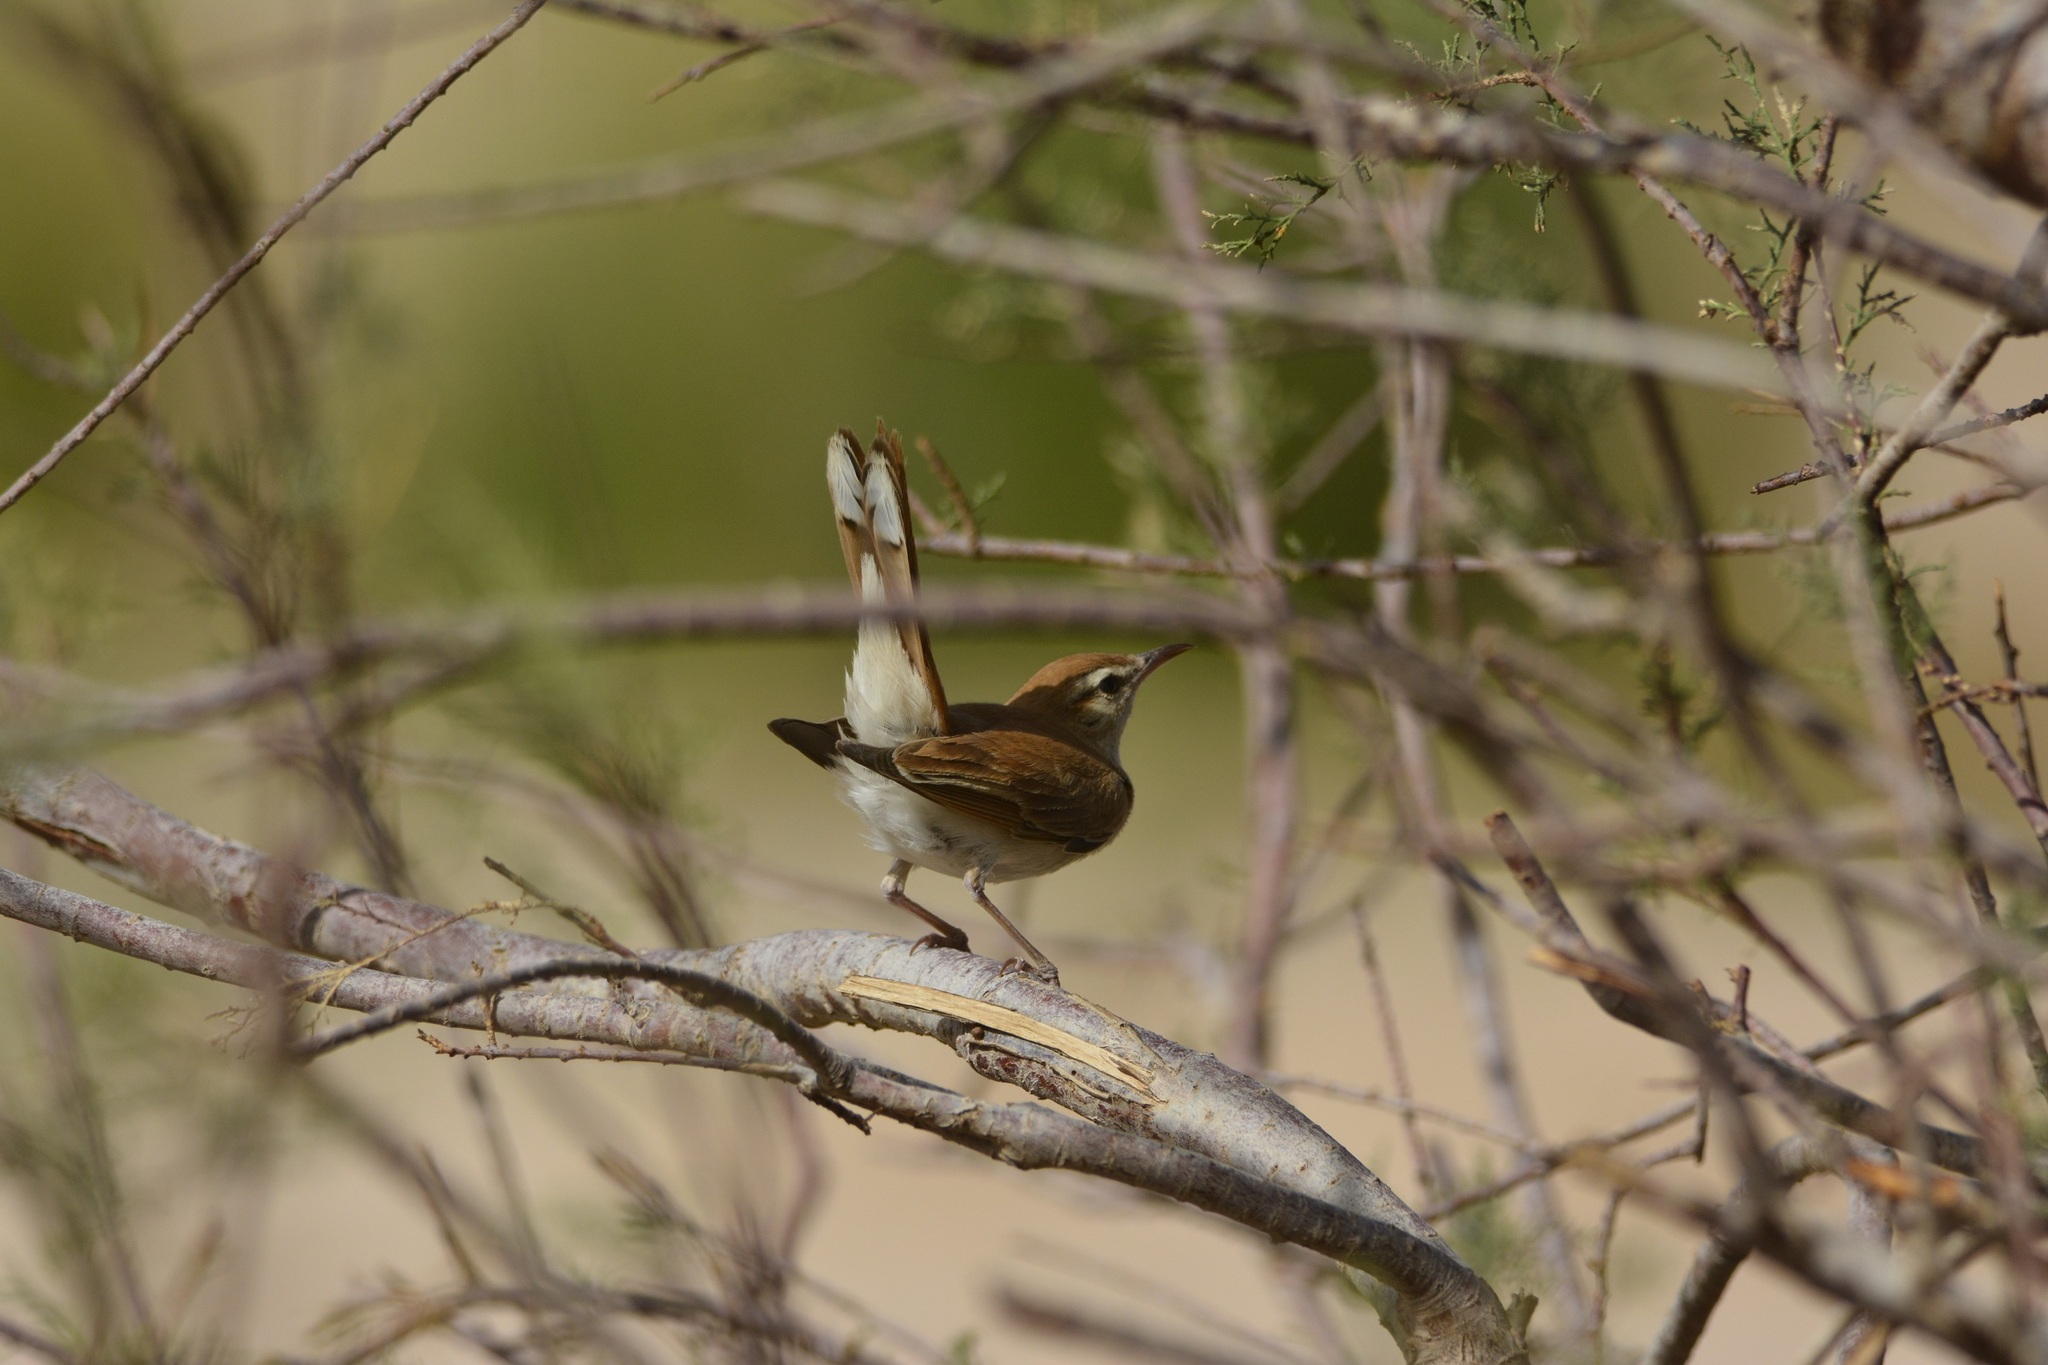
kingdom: Animalia
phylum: Chordata
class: Aves
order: Passeriformes
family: Muscicapidae
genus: Erythropygia
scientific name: Erythropygia galactotes
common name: Rufous-tailed scrub robin
